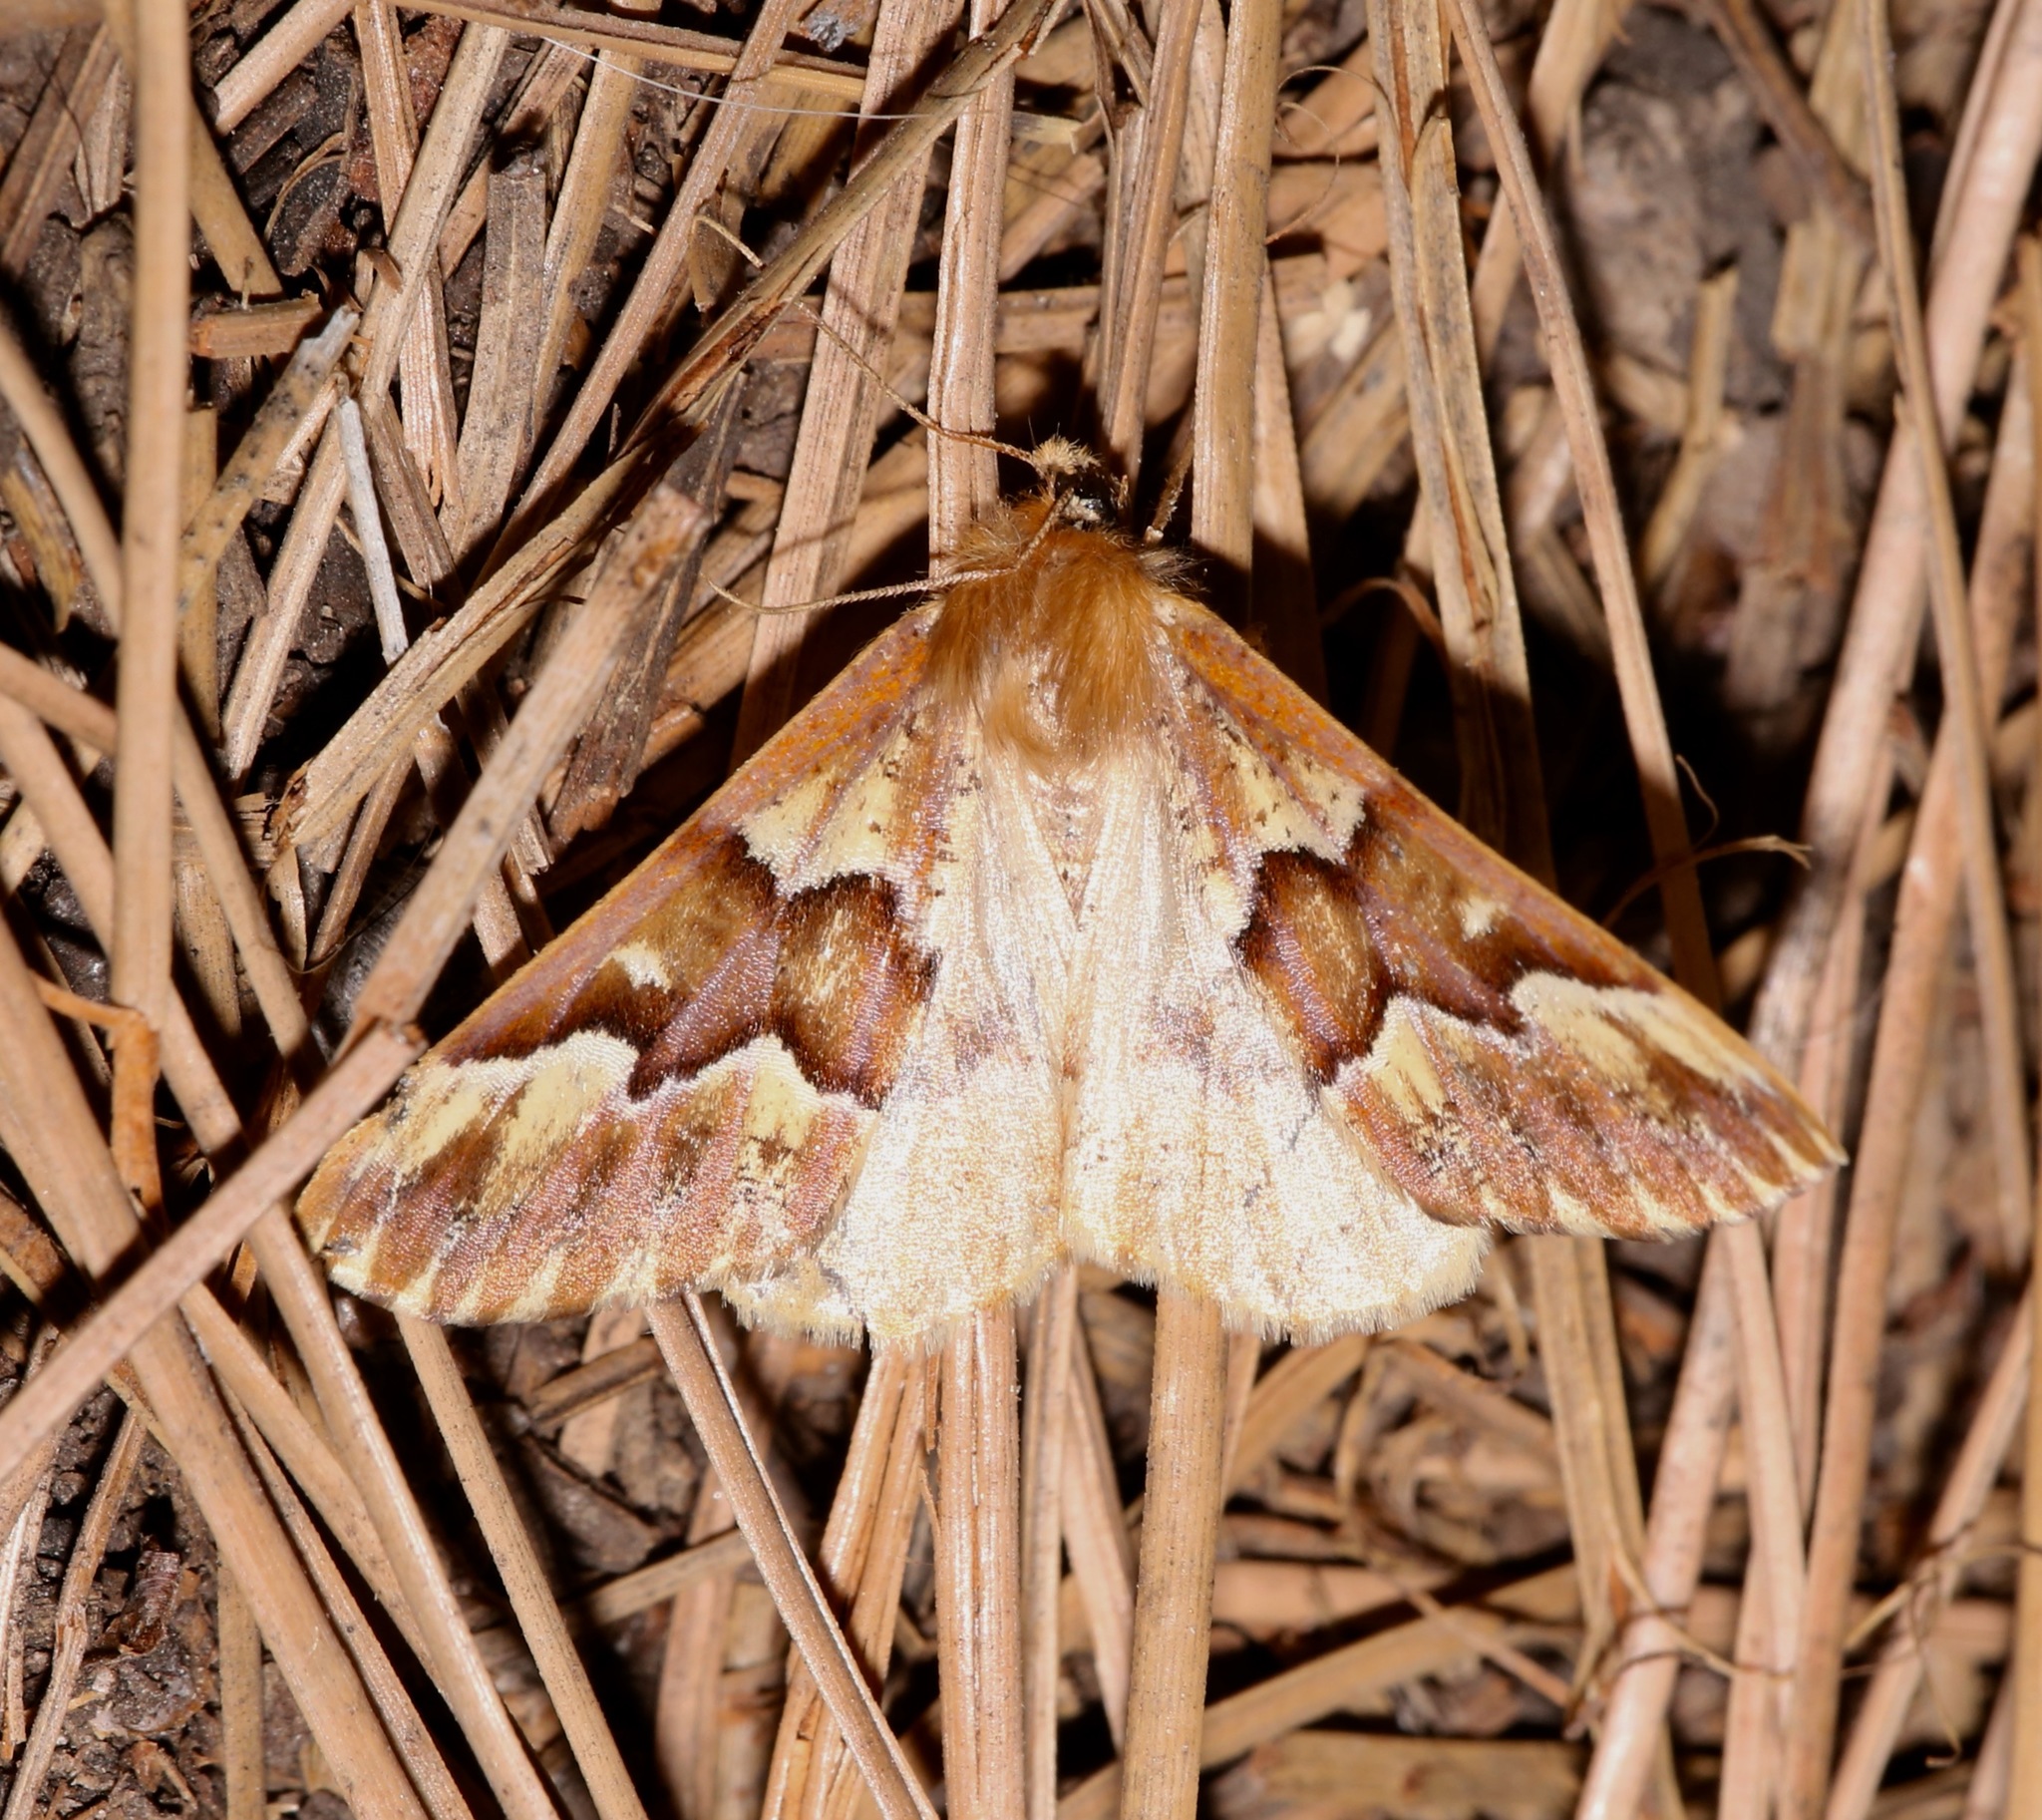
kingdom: Animalia
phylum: Arthropoda
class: Insecta
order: Lepidoptera
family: Geometridae
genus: Caripeta
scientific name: Caripeta aequaliaria
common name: Red girdle moth
